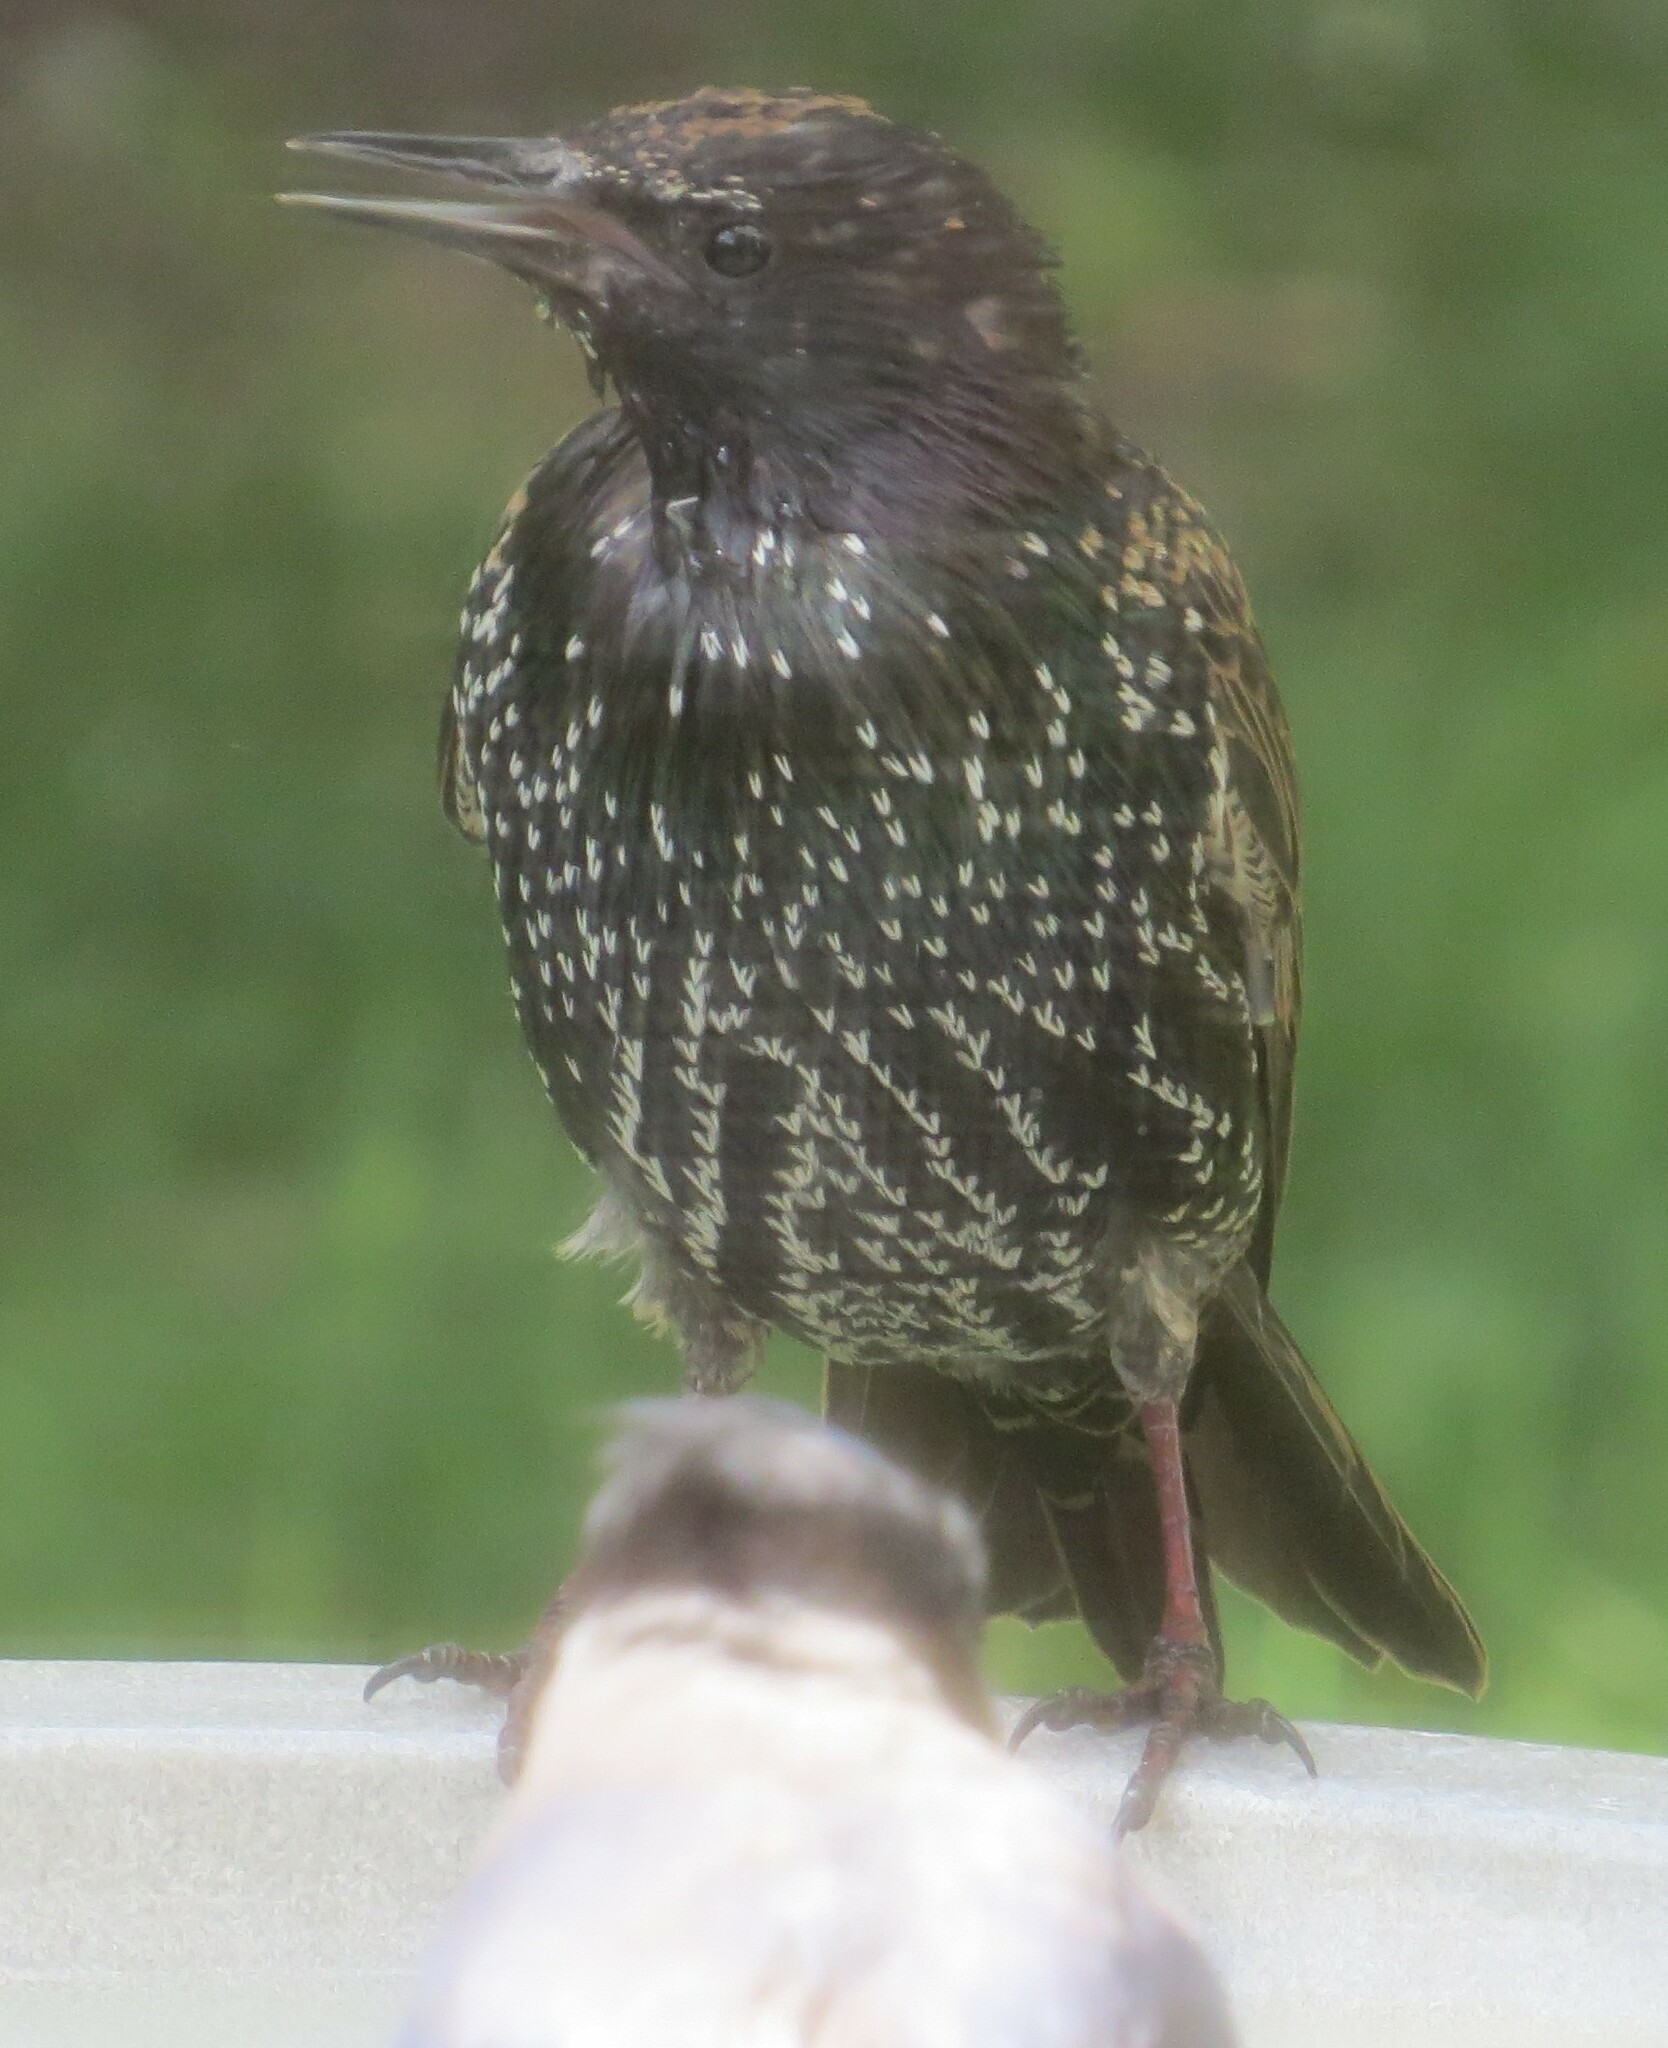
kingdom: Animalia
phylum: Chordata
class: Aves
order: Passeriformes
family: Sturnidae
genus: Sturnus
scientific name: Sturnus vulgaris
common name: Common starling
